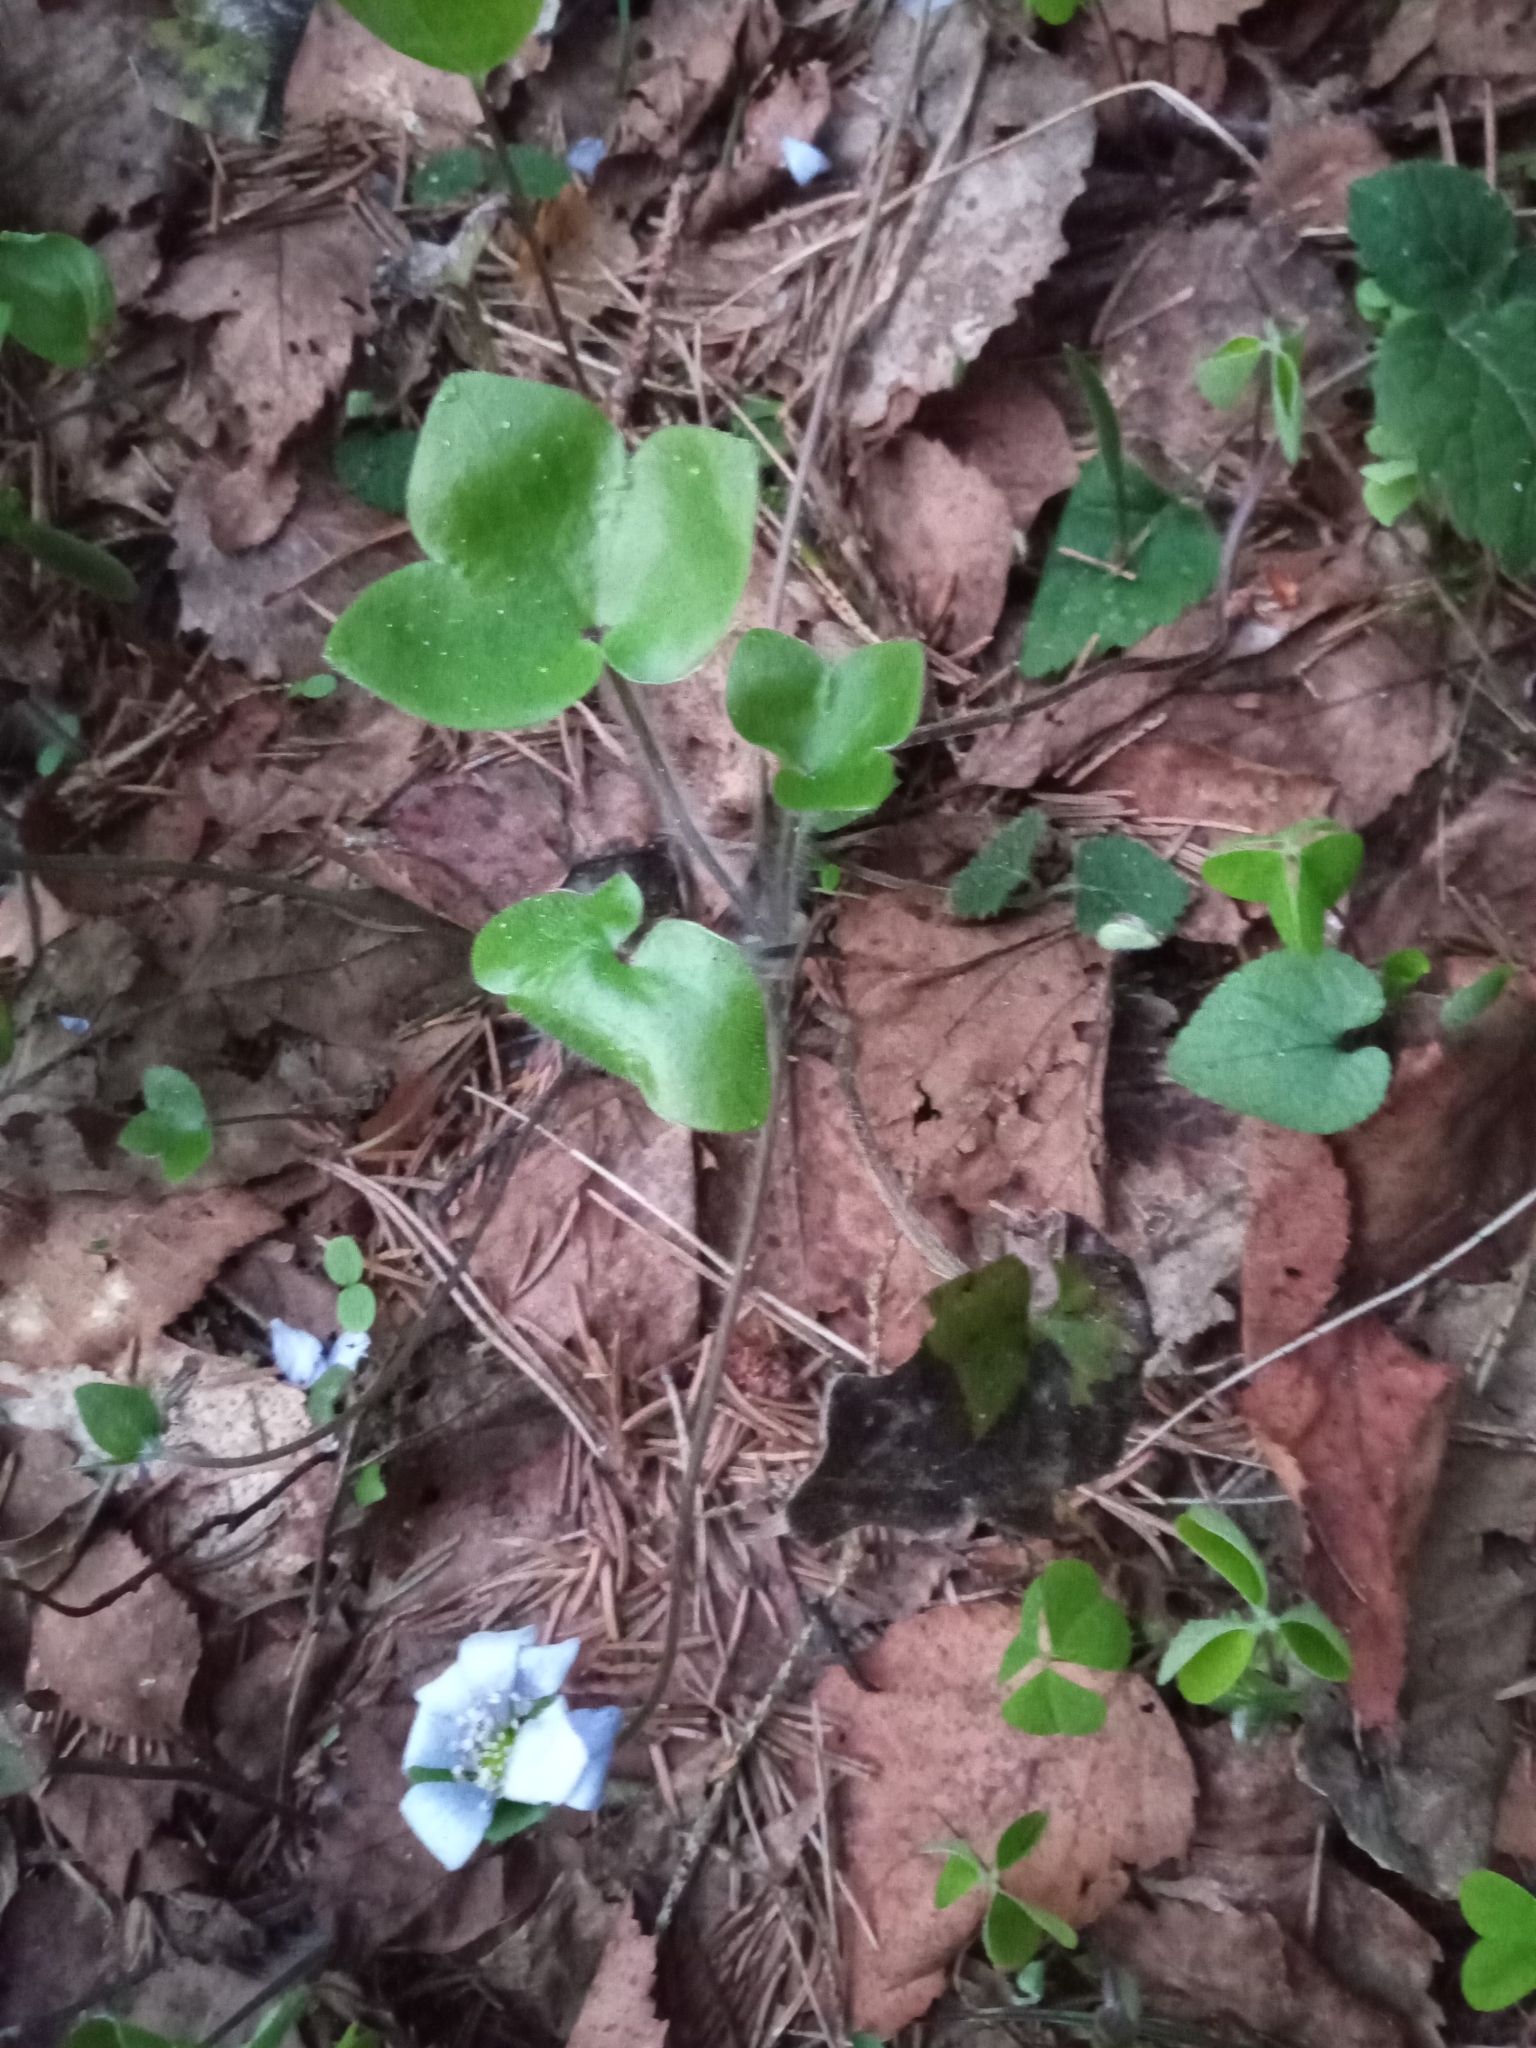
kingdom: Plantae
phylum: Tracheophyta
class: Magnoliopsida
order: Ranunculales
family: Ranunculaceae
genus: Hepatica
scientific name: Hepatica nobilis
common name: Liverleaf
